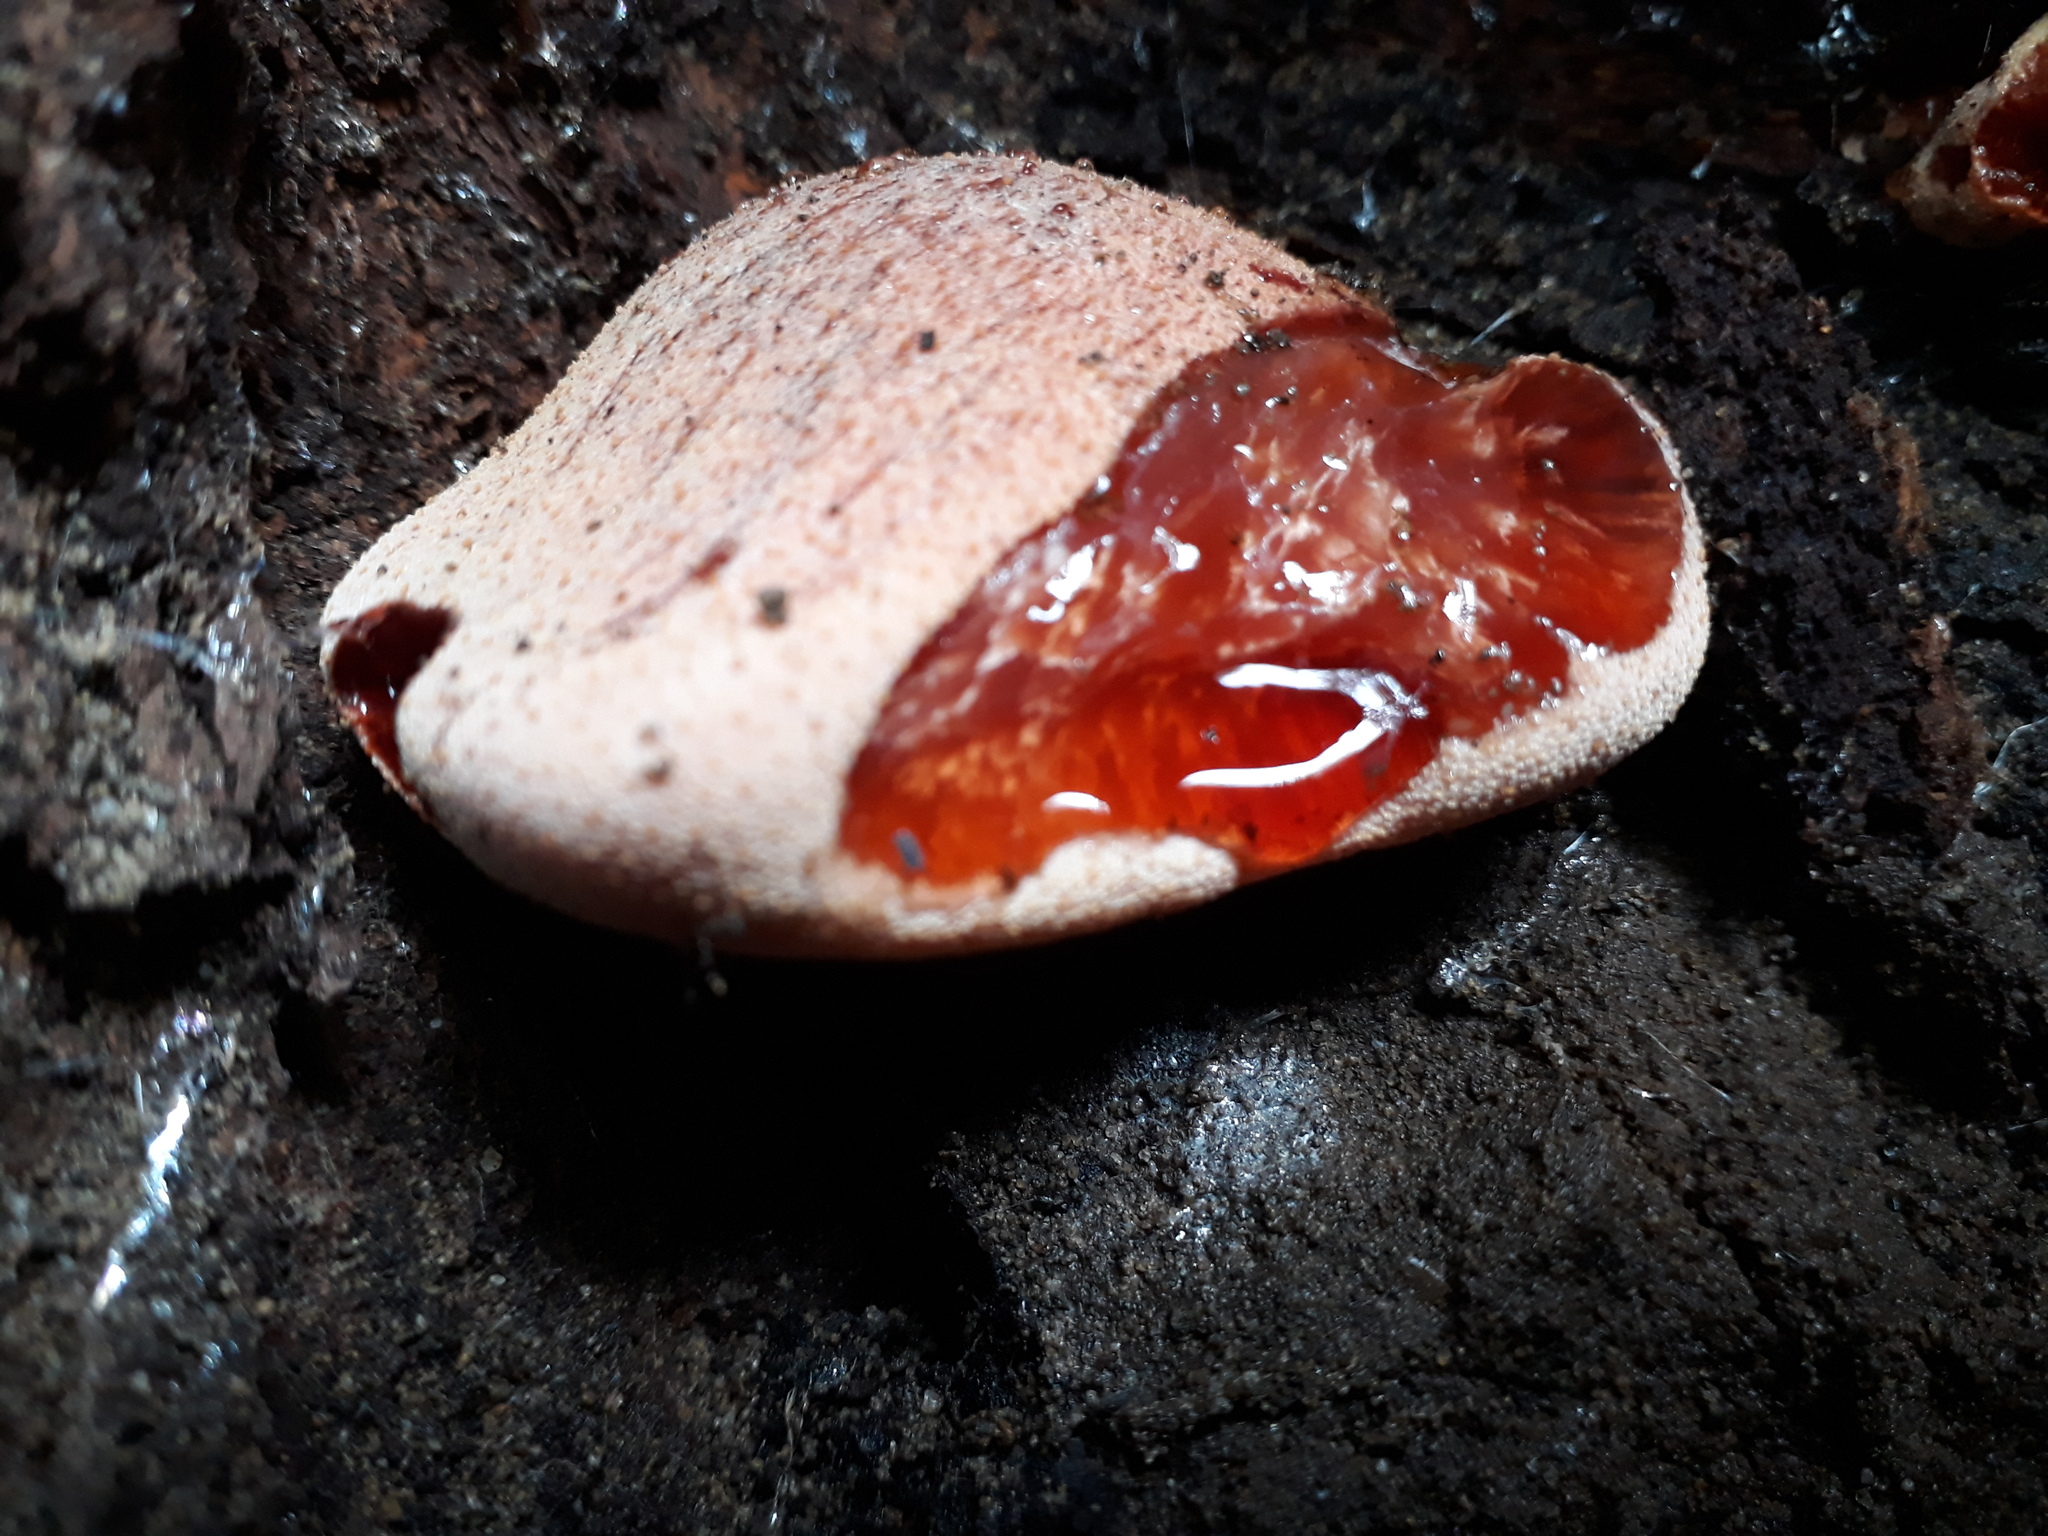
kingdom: Fungi
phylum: Basidiomycota
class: Agaricomycetes
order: Agaricales
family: Fistulinaceae
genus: Fistulina
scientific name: Fistulina hepatica
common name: Beef-steak fungus
